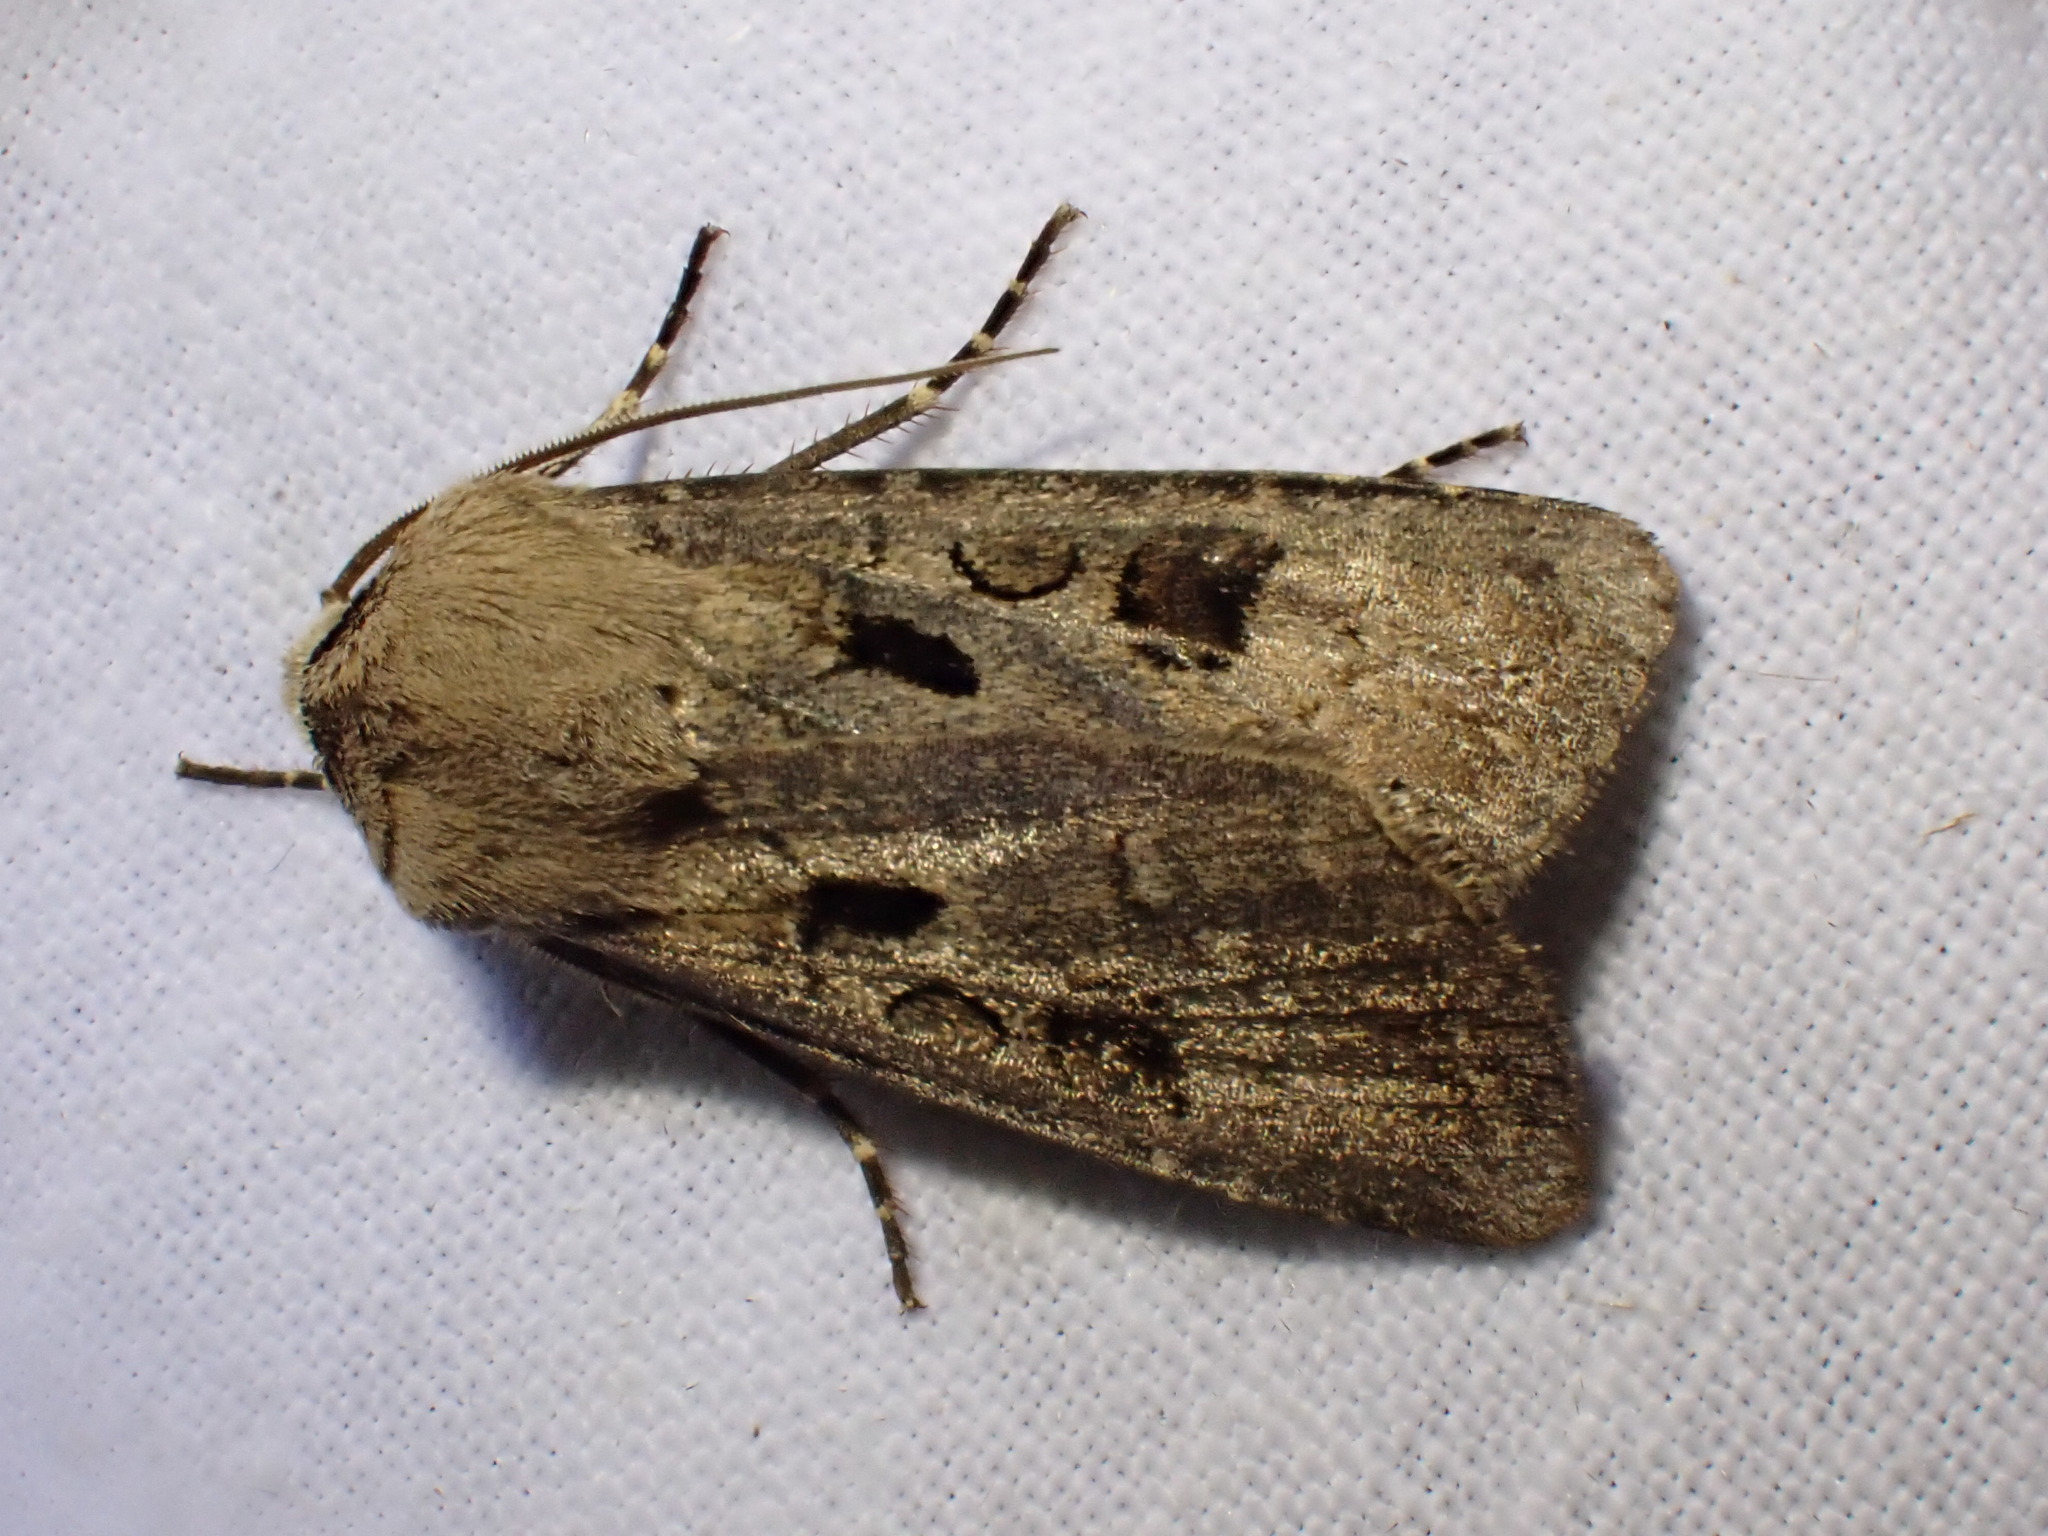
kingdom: Animalia
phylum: Arthropoda
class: Insecta
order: Lepidoptera
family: Noctuidae
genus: Agrotis
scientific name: Agrotis exclamationis
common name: Heart and dart
